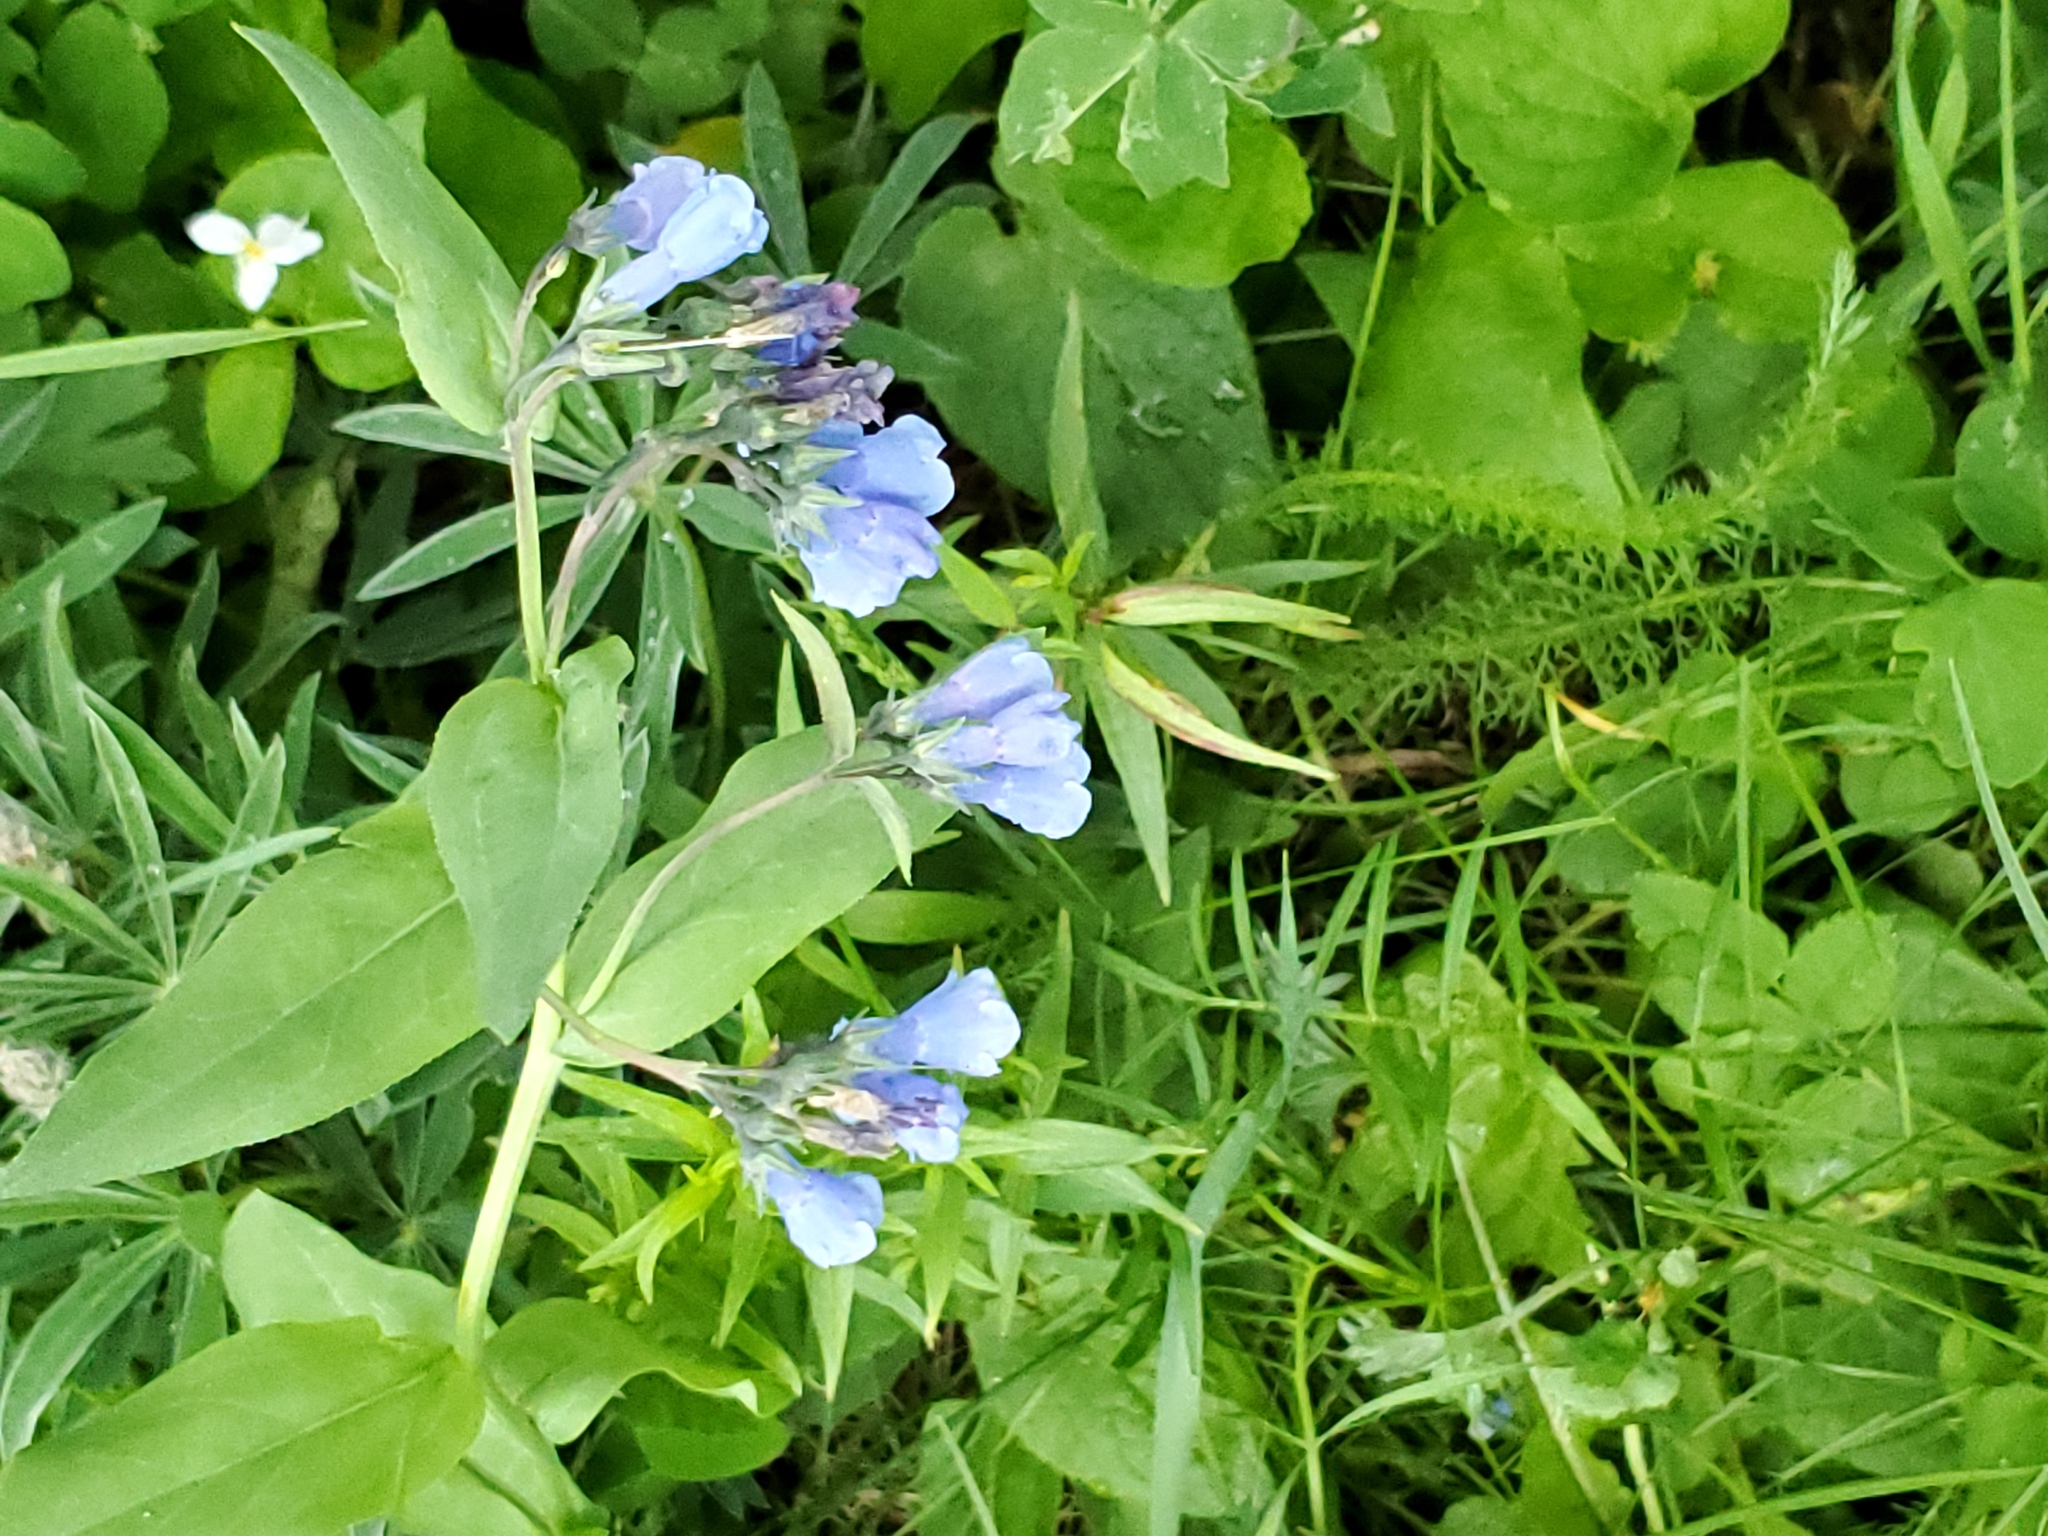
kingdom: Plantae
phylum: Tracheophyta
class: Magnoliopsida
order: Boraginales
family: Boraginaceae
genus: Mertensia
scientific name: Mertensia ciliata
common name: Tall chiming-bells
